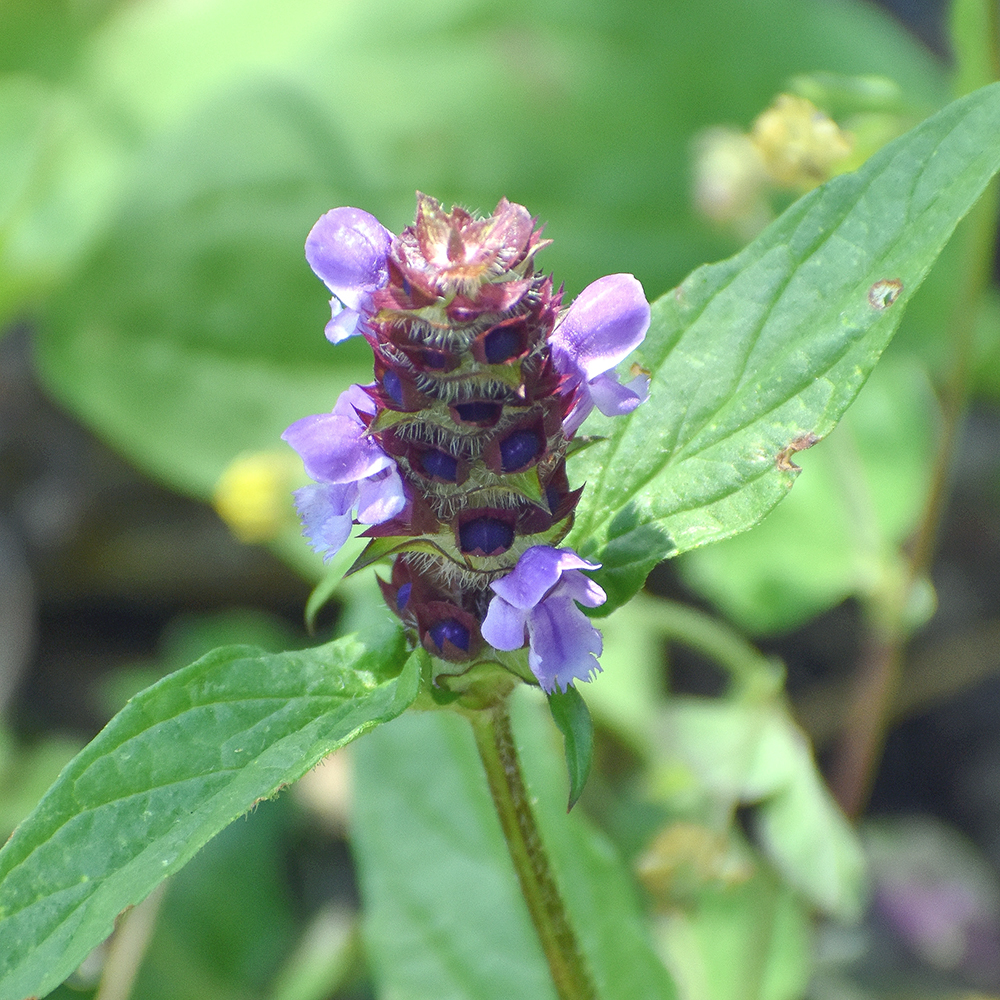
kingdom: Plantae
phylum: Tracheophyta
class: Magnoliopsida
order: Lamiales
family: Lamiaceae
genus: Prunella
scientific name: Prunella vulgaris
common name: Heal-all
